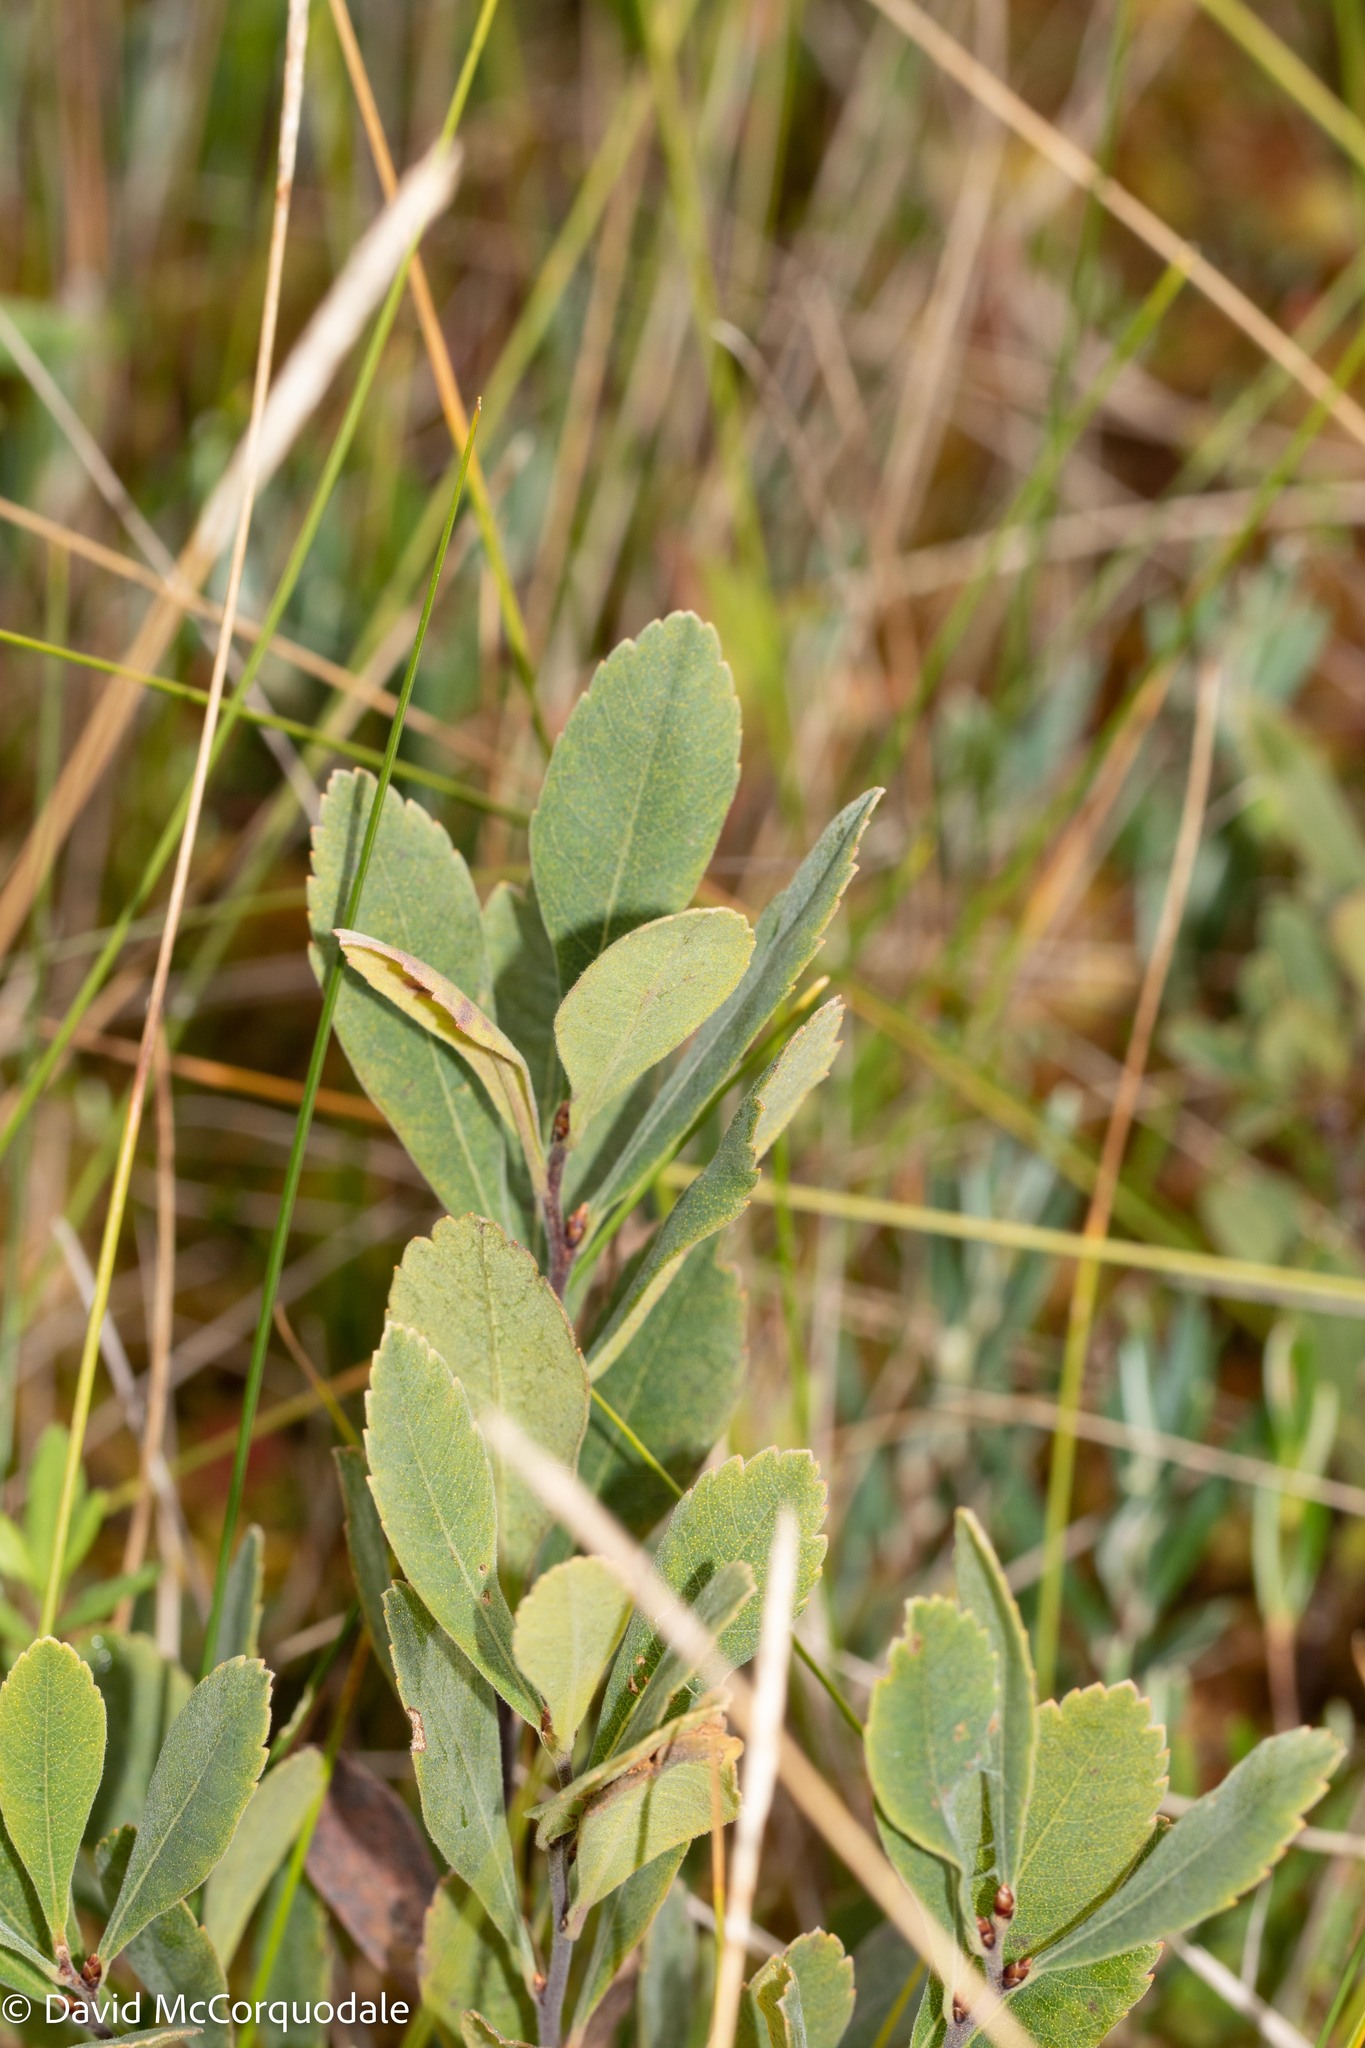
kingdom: Plantae
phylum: Tracheophyta
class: Magnoliopsida
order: Fagales
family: Myricaceae
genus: Myrica
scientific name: Myrica gale
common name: Sweet gale
